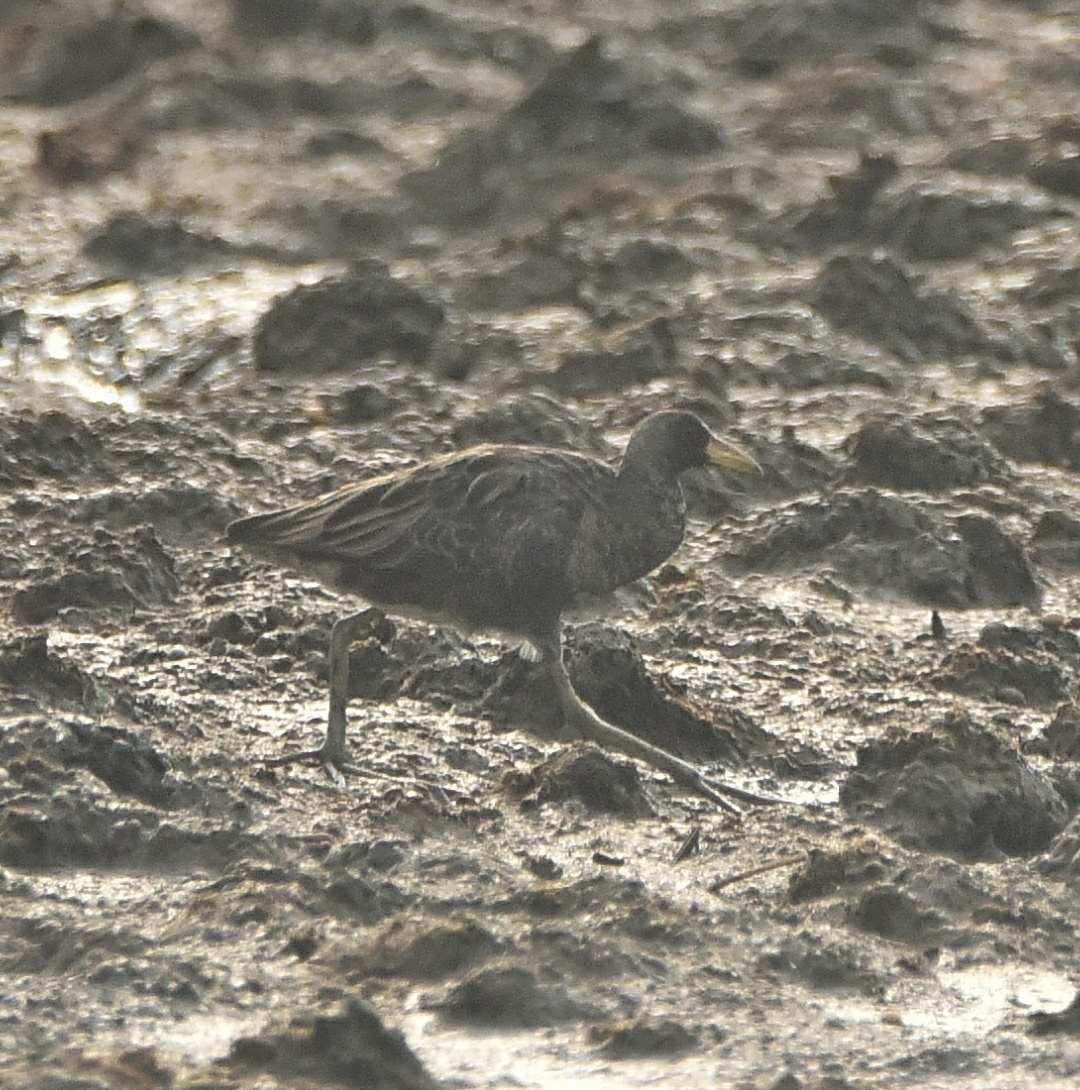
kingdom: Animalia
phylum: Chordata
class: Aves
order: Gruiformes
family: Rallidae
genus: Gallicrex
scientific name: Gallicrex cinerea
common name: Watercock
